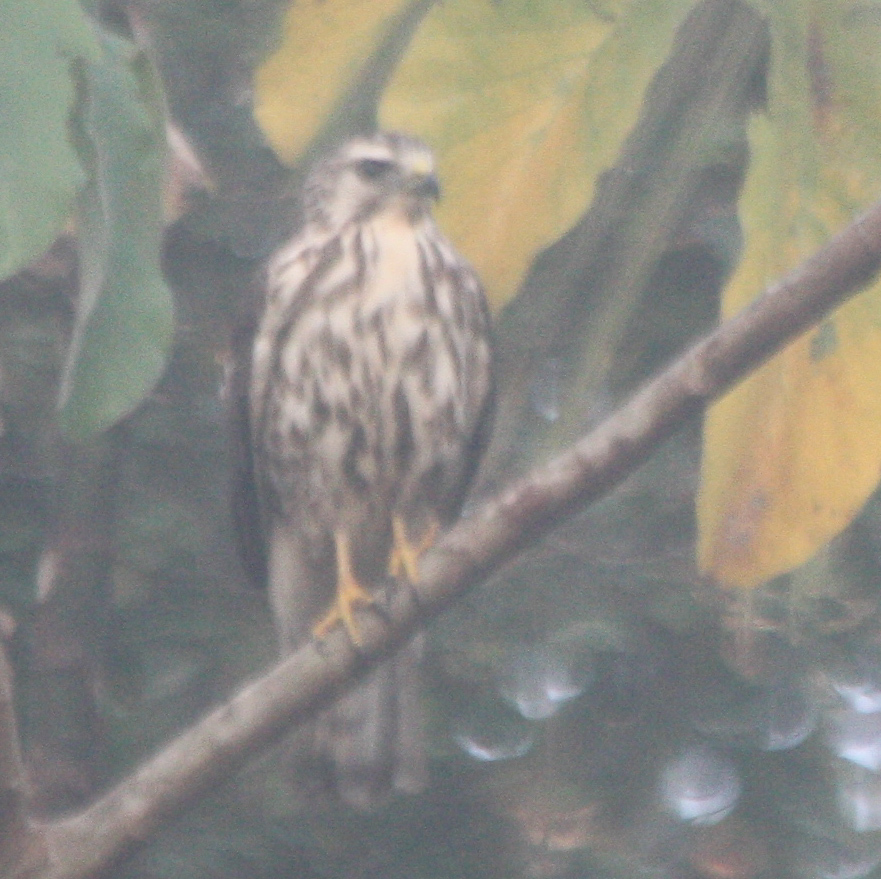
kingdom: Animalia
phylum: Chordata
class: Aves
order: Accipitriformes
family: Accipitridae
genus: Buteo
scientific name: Buteo nitidus
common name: Grey-lined hawk
